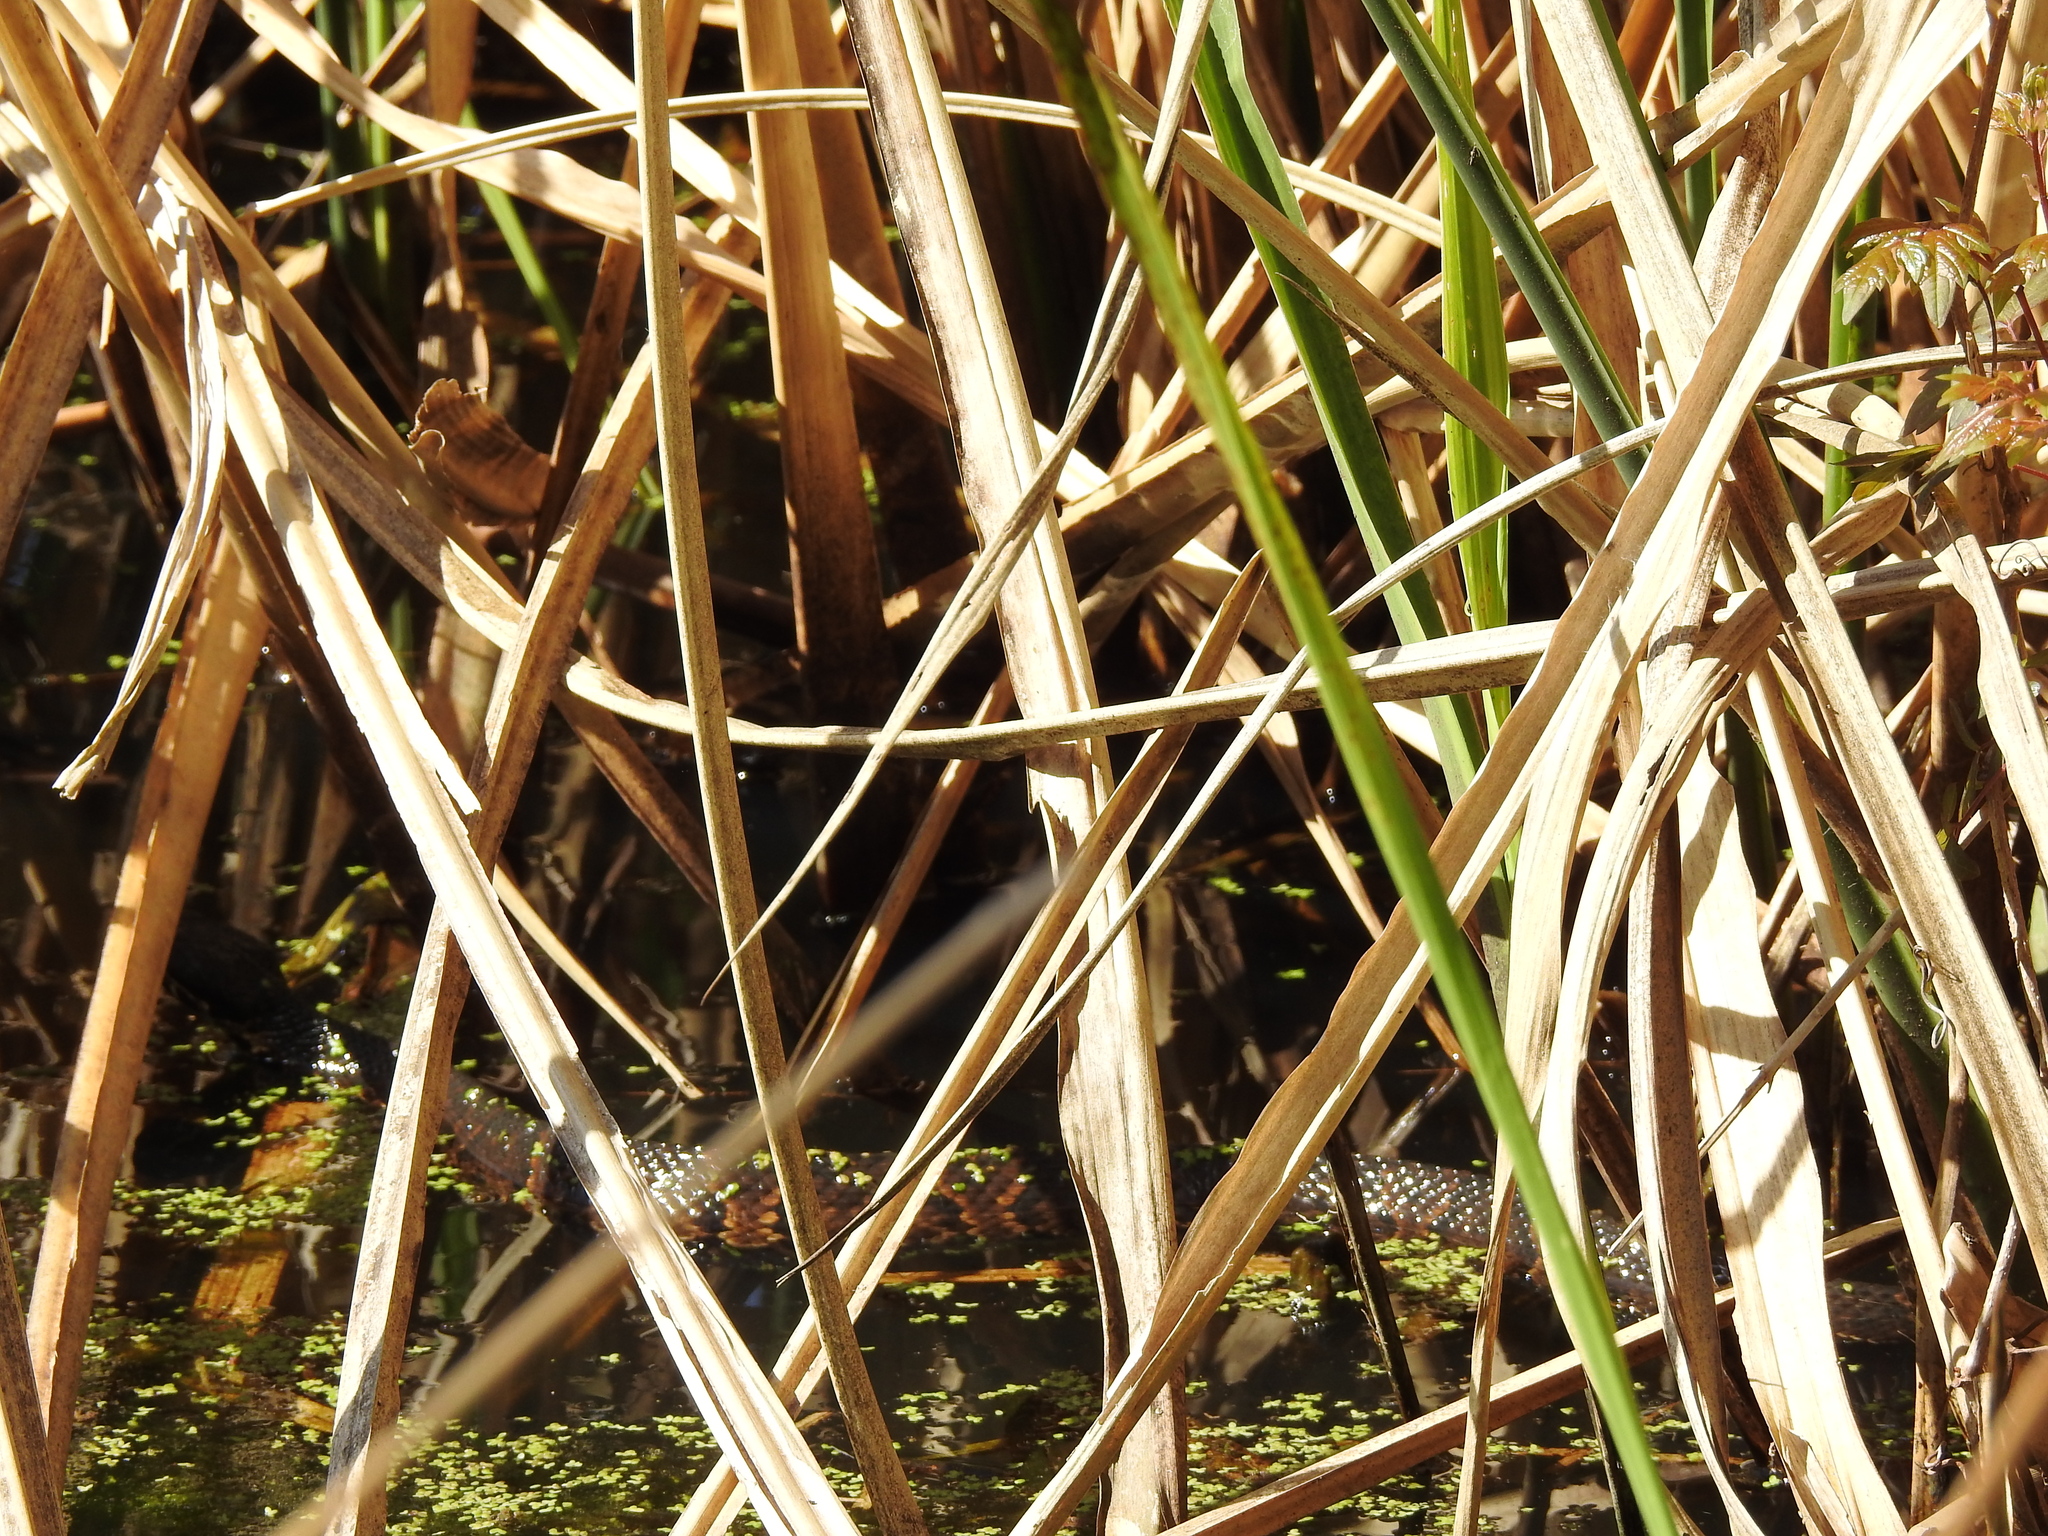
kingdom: Animalia
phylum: Chordata
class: Squamata
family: Viperidae
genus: Agkistrodon
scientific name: Agkistrodon piscivorus
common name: Cottonmouth
